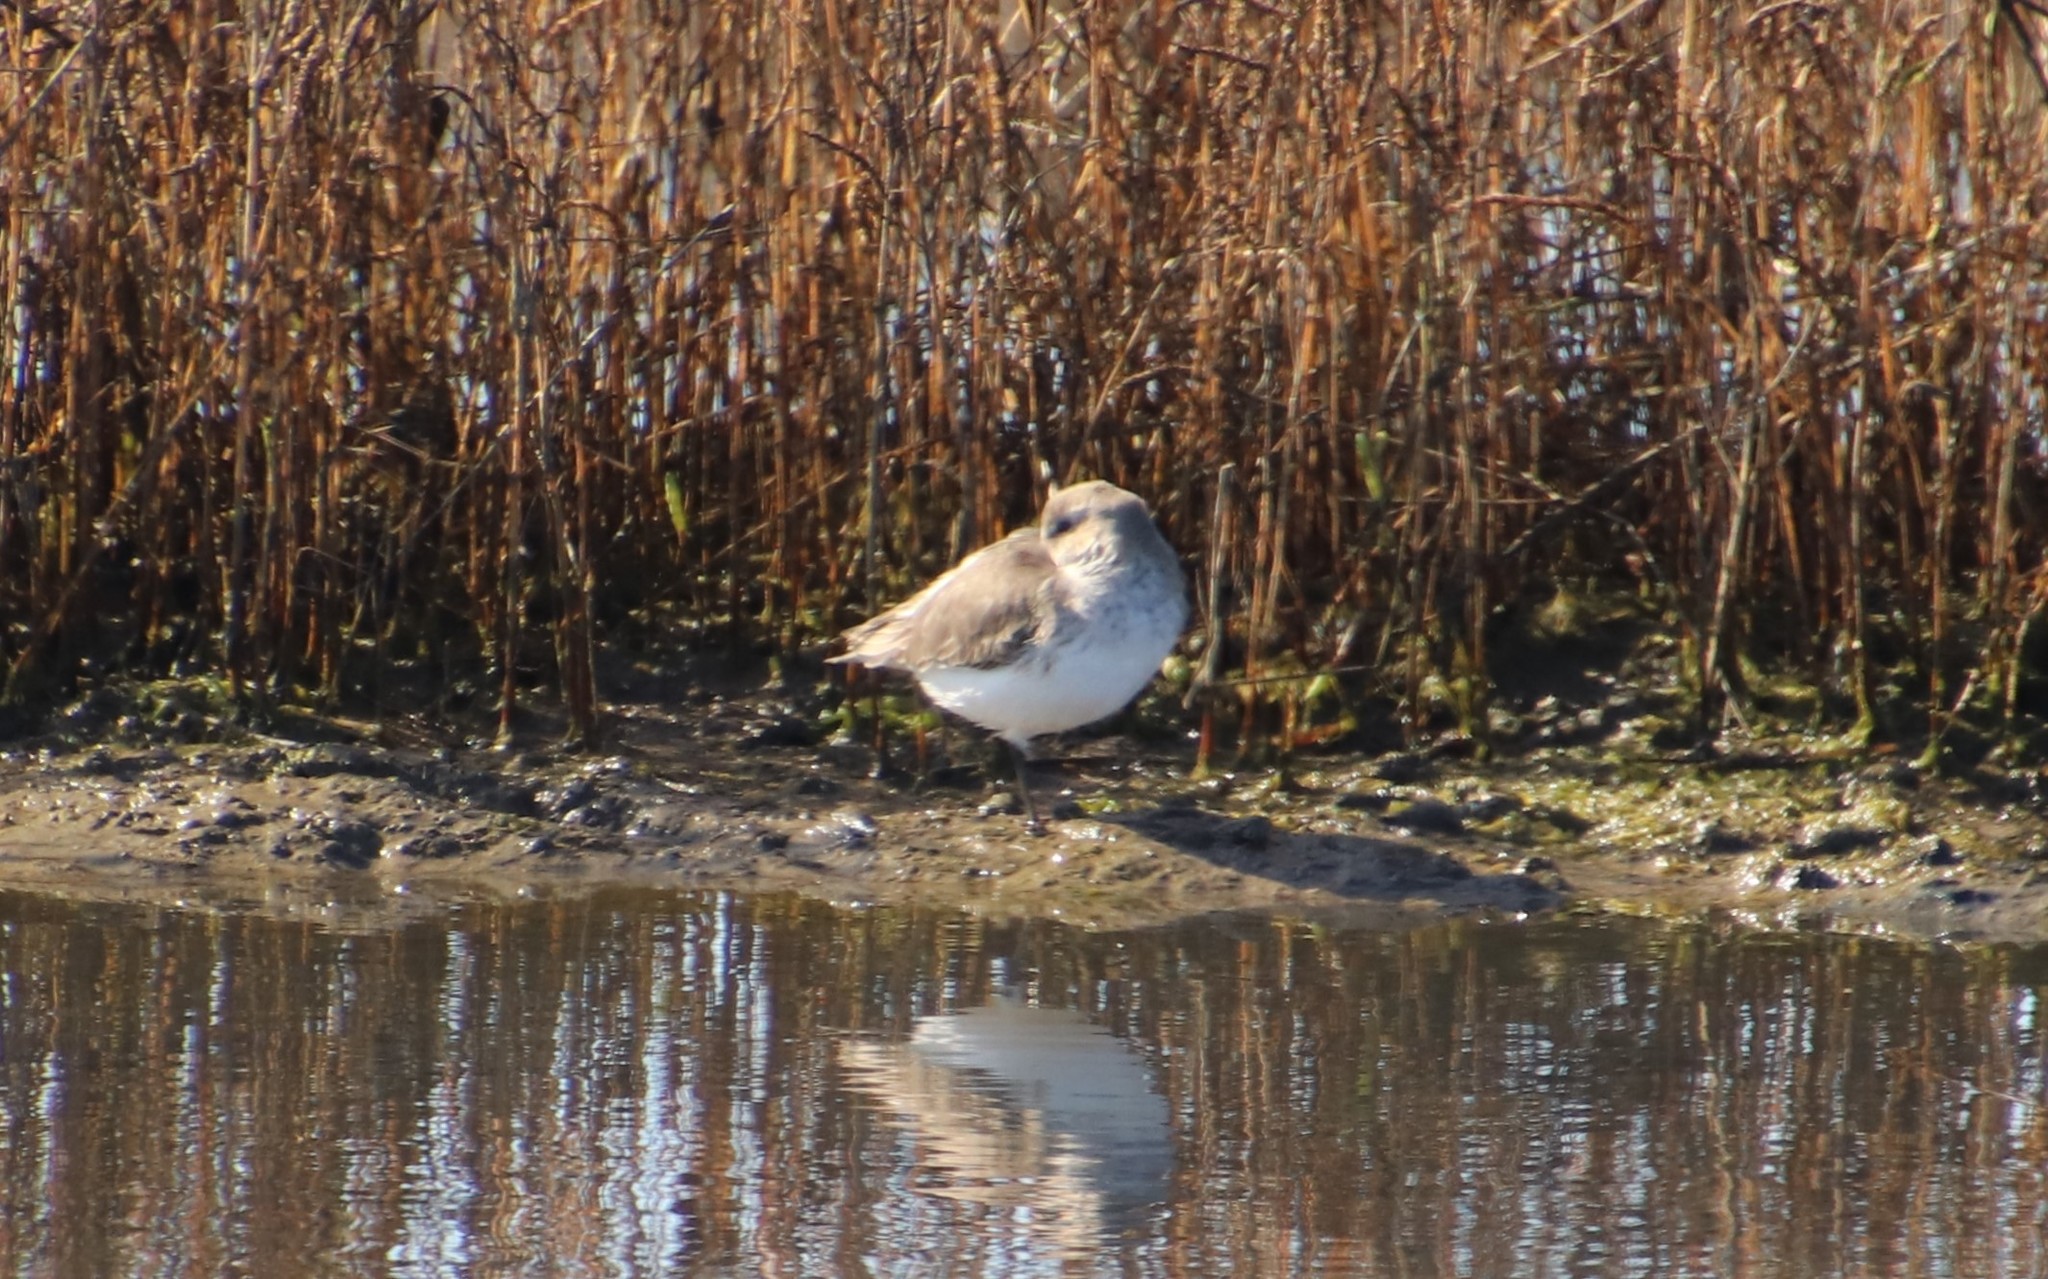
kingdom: Animalia
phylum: Chordata
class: Aves
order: Charadriiformes
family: Scolopacidae
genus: Calidris
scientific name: Calidris alpina
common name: Dunlin
